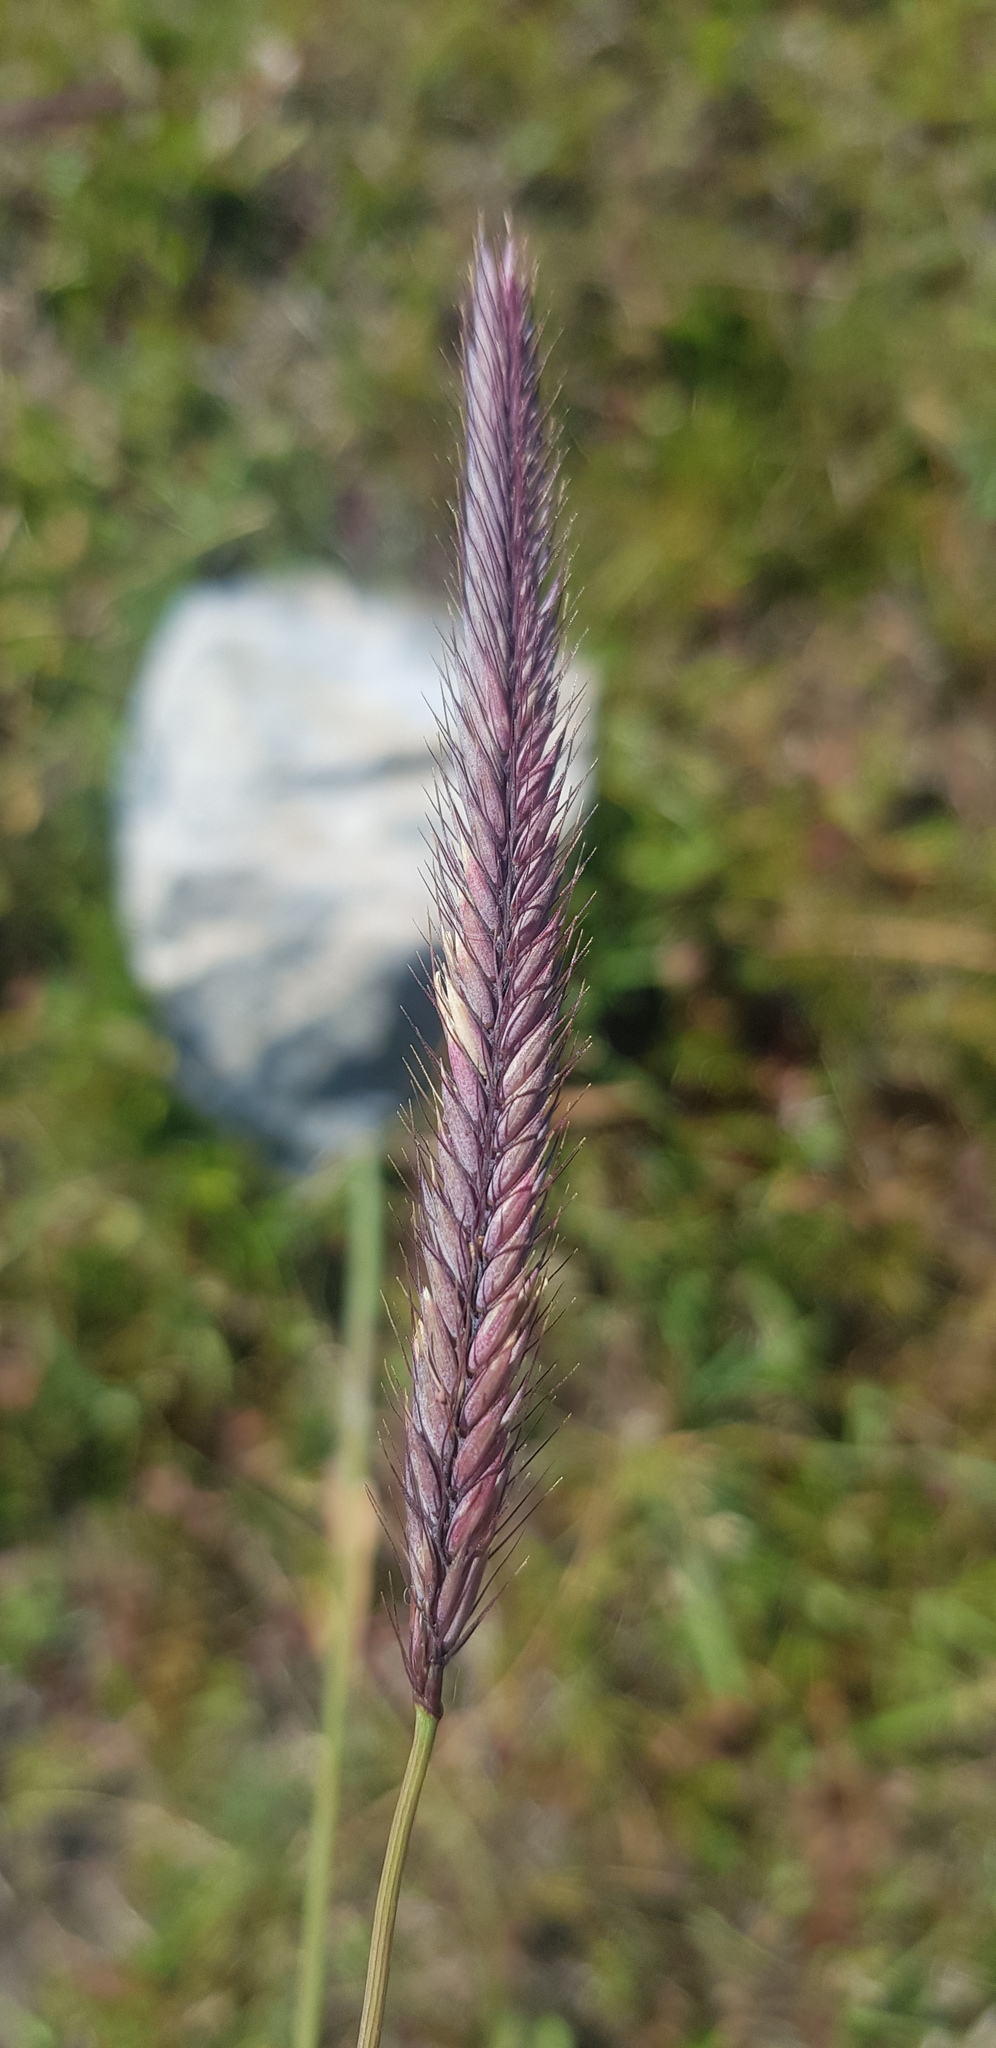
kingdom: Plantae
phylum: Tracheophyta
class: Liliopsida
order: Poales
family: Poaceae
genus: Hordeum
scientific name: Hordeum brevisubulatum
